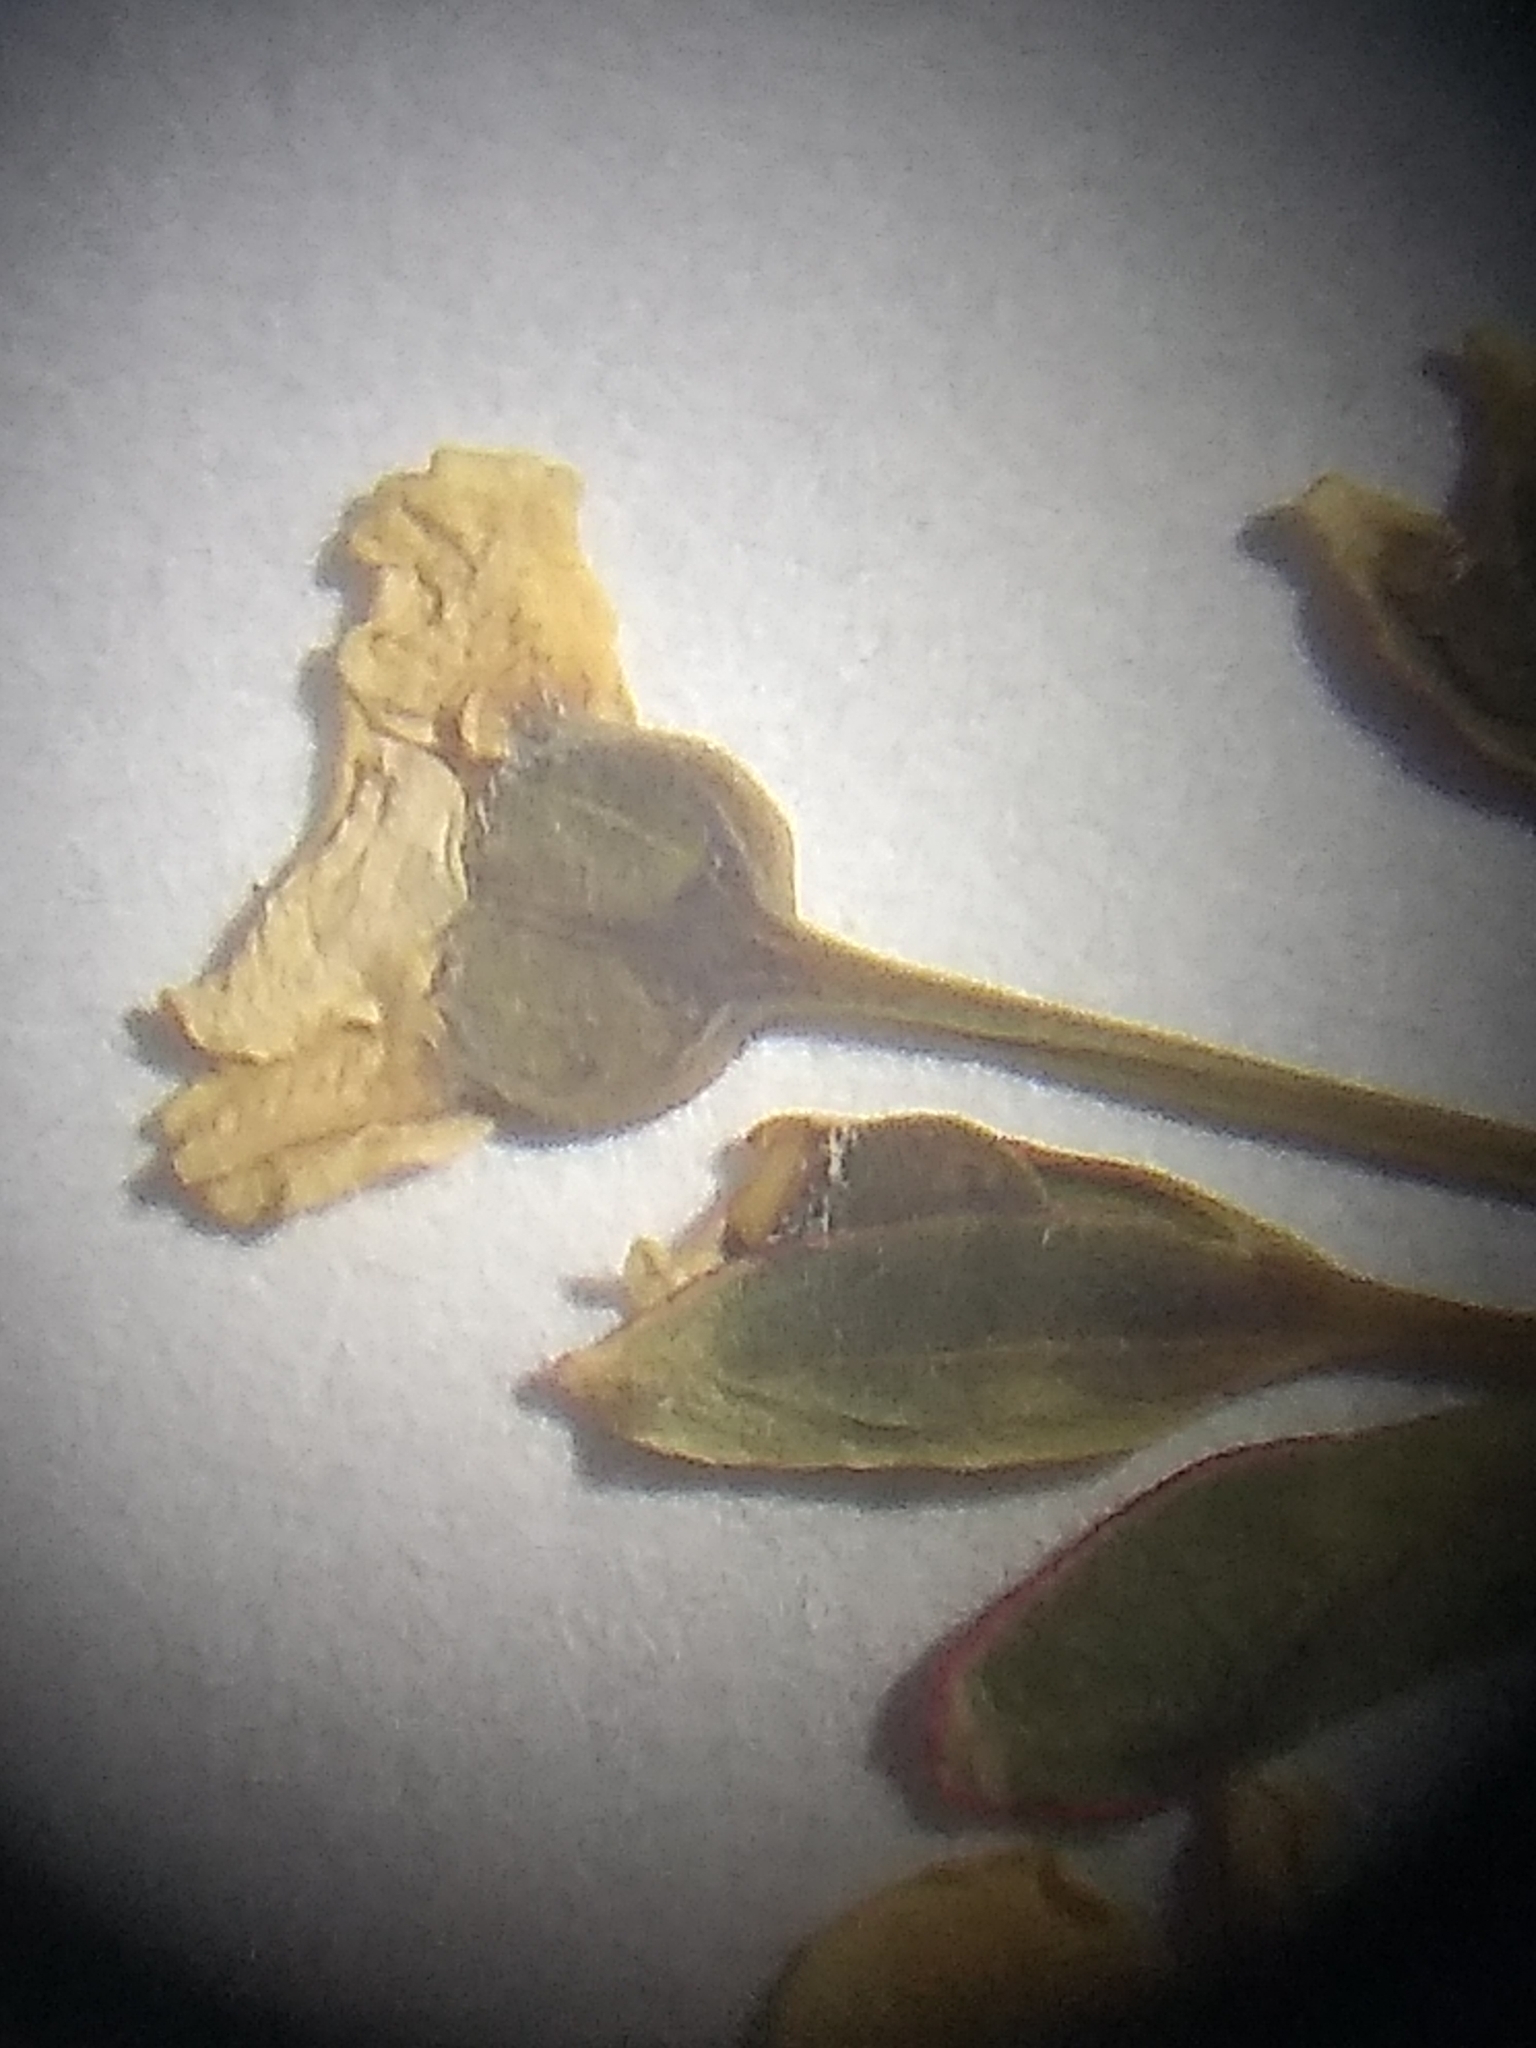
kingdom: Plantae
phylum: Tracheophyta
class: Magnoliopsida
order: Malpighiales
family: Euphorbiaceae
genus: Euphorbia
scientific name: Euphorbia corollata
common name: Flowering spurge
